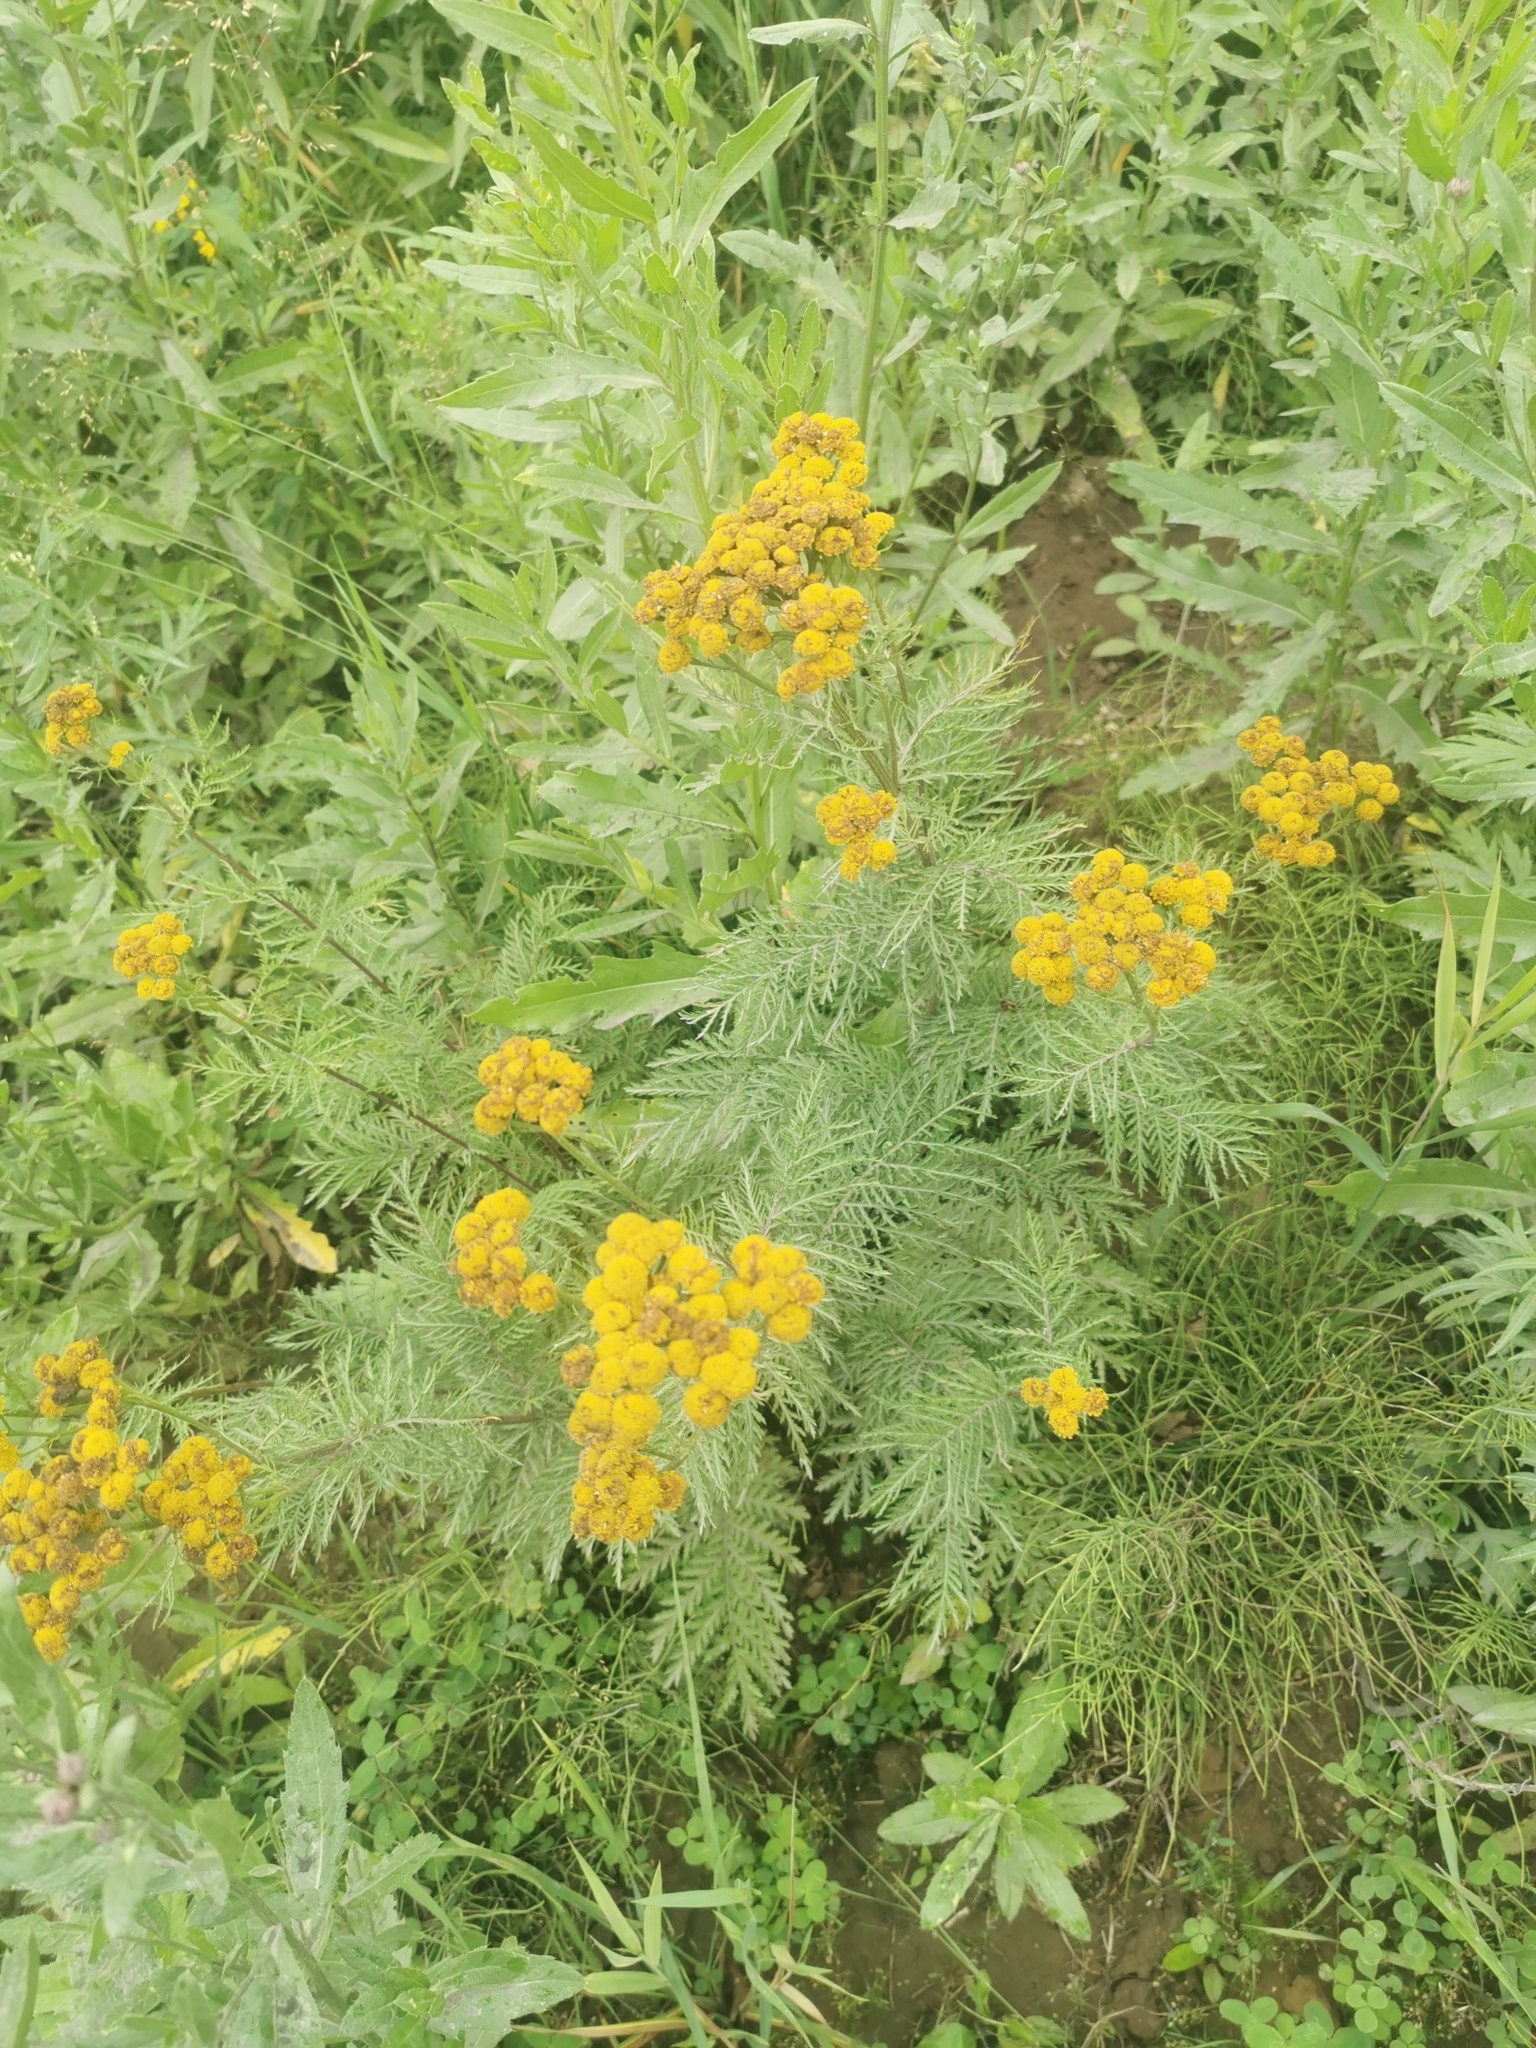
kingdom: Plantae
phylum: Tracheophyta
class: Magnoliopsida
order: Asterales
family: Asteraceae
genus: Tanacetum
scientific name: Tanacetum vulgare
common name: Common tansy
